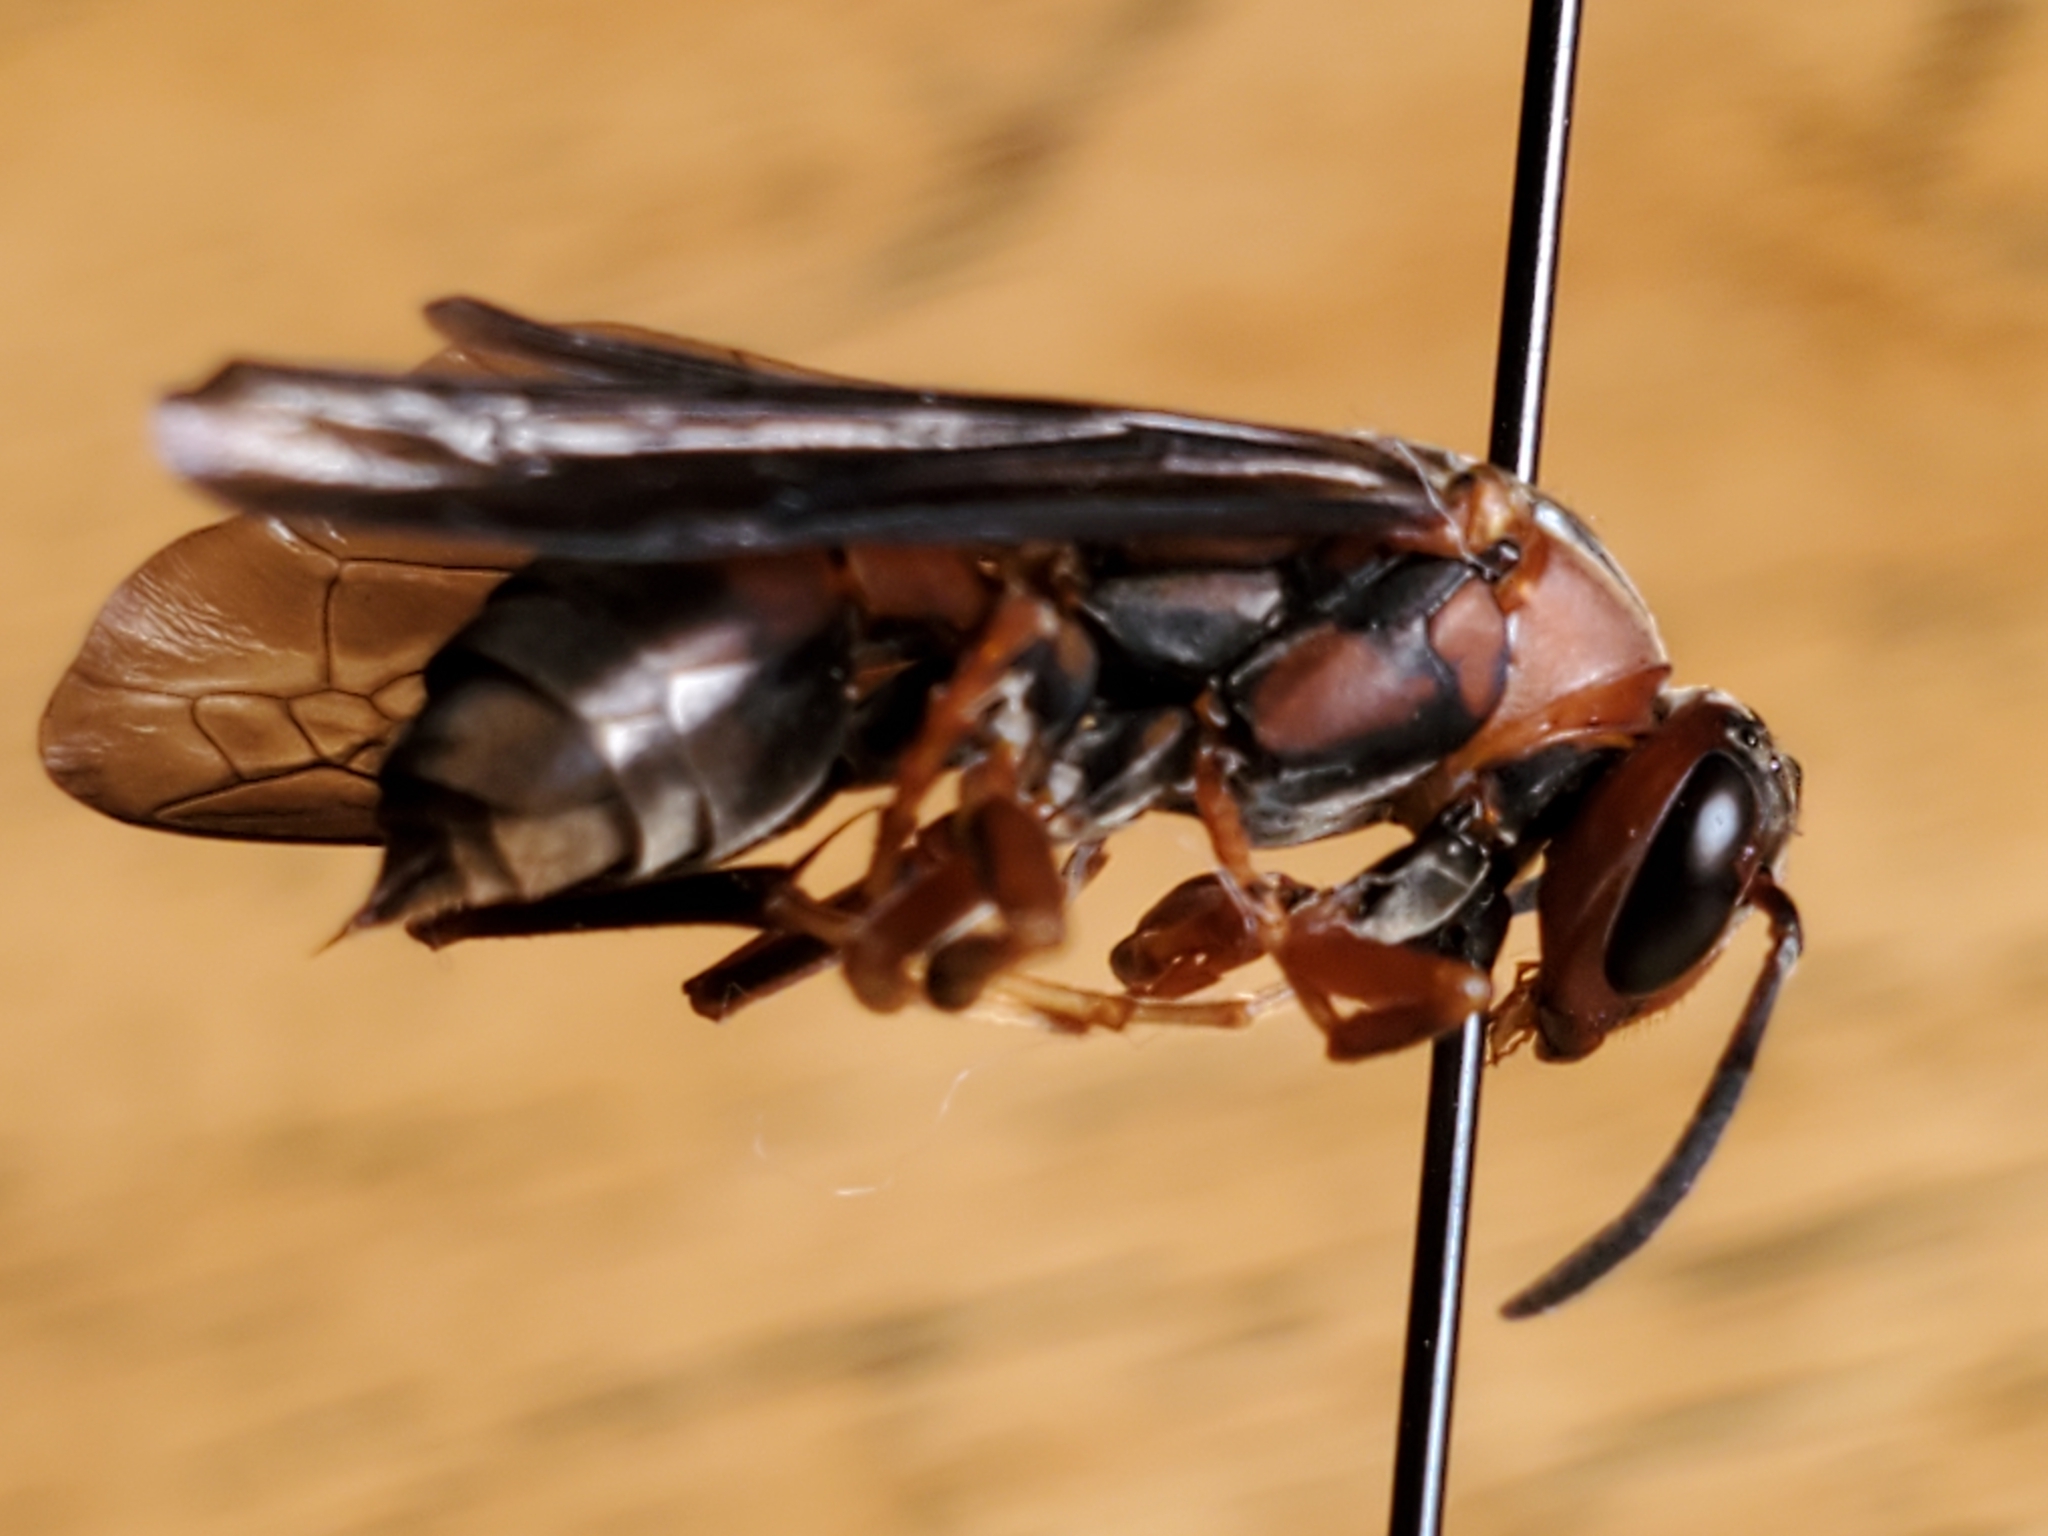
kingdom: Animalia
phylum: Arthropoda
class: Insecta
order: Hymenoptera
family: Eumenidae
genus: Polistes
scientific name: Polistes metricus
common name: Metric paper wasp
